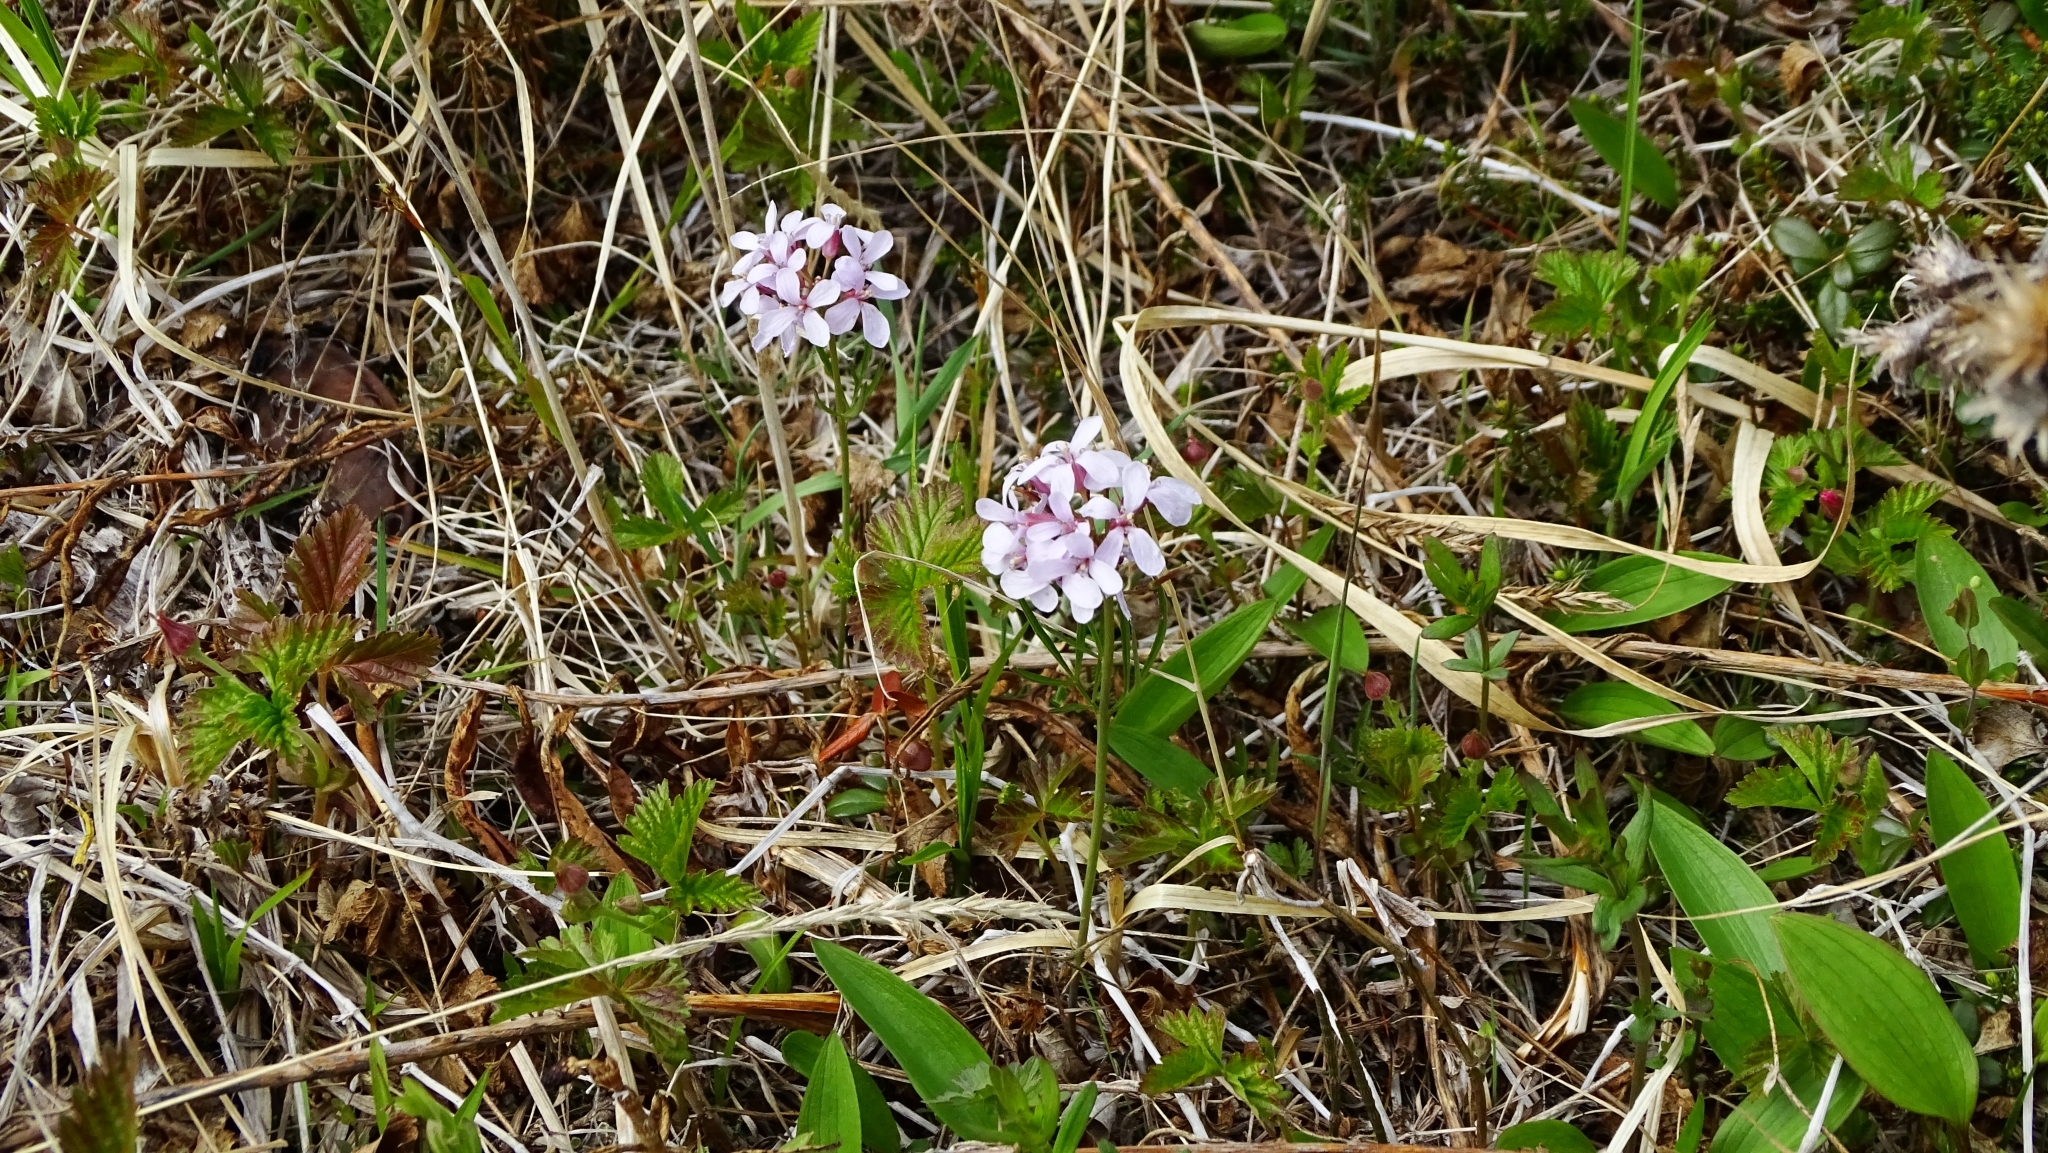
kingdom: Plantae
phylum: Tracheophyta
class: Magnoliopsida
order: Brassicales
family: Brassicaceae
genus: Cardamine
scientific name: Cardamine pratensis
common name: Cuckoo flower
